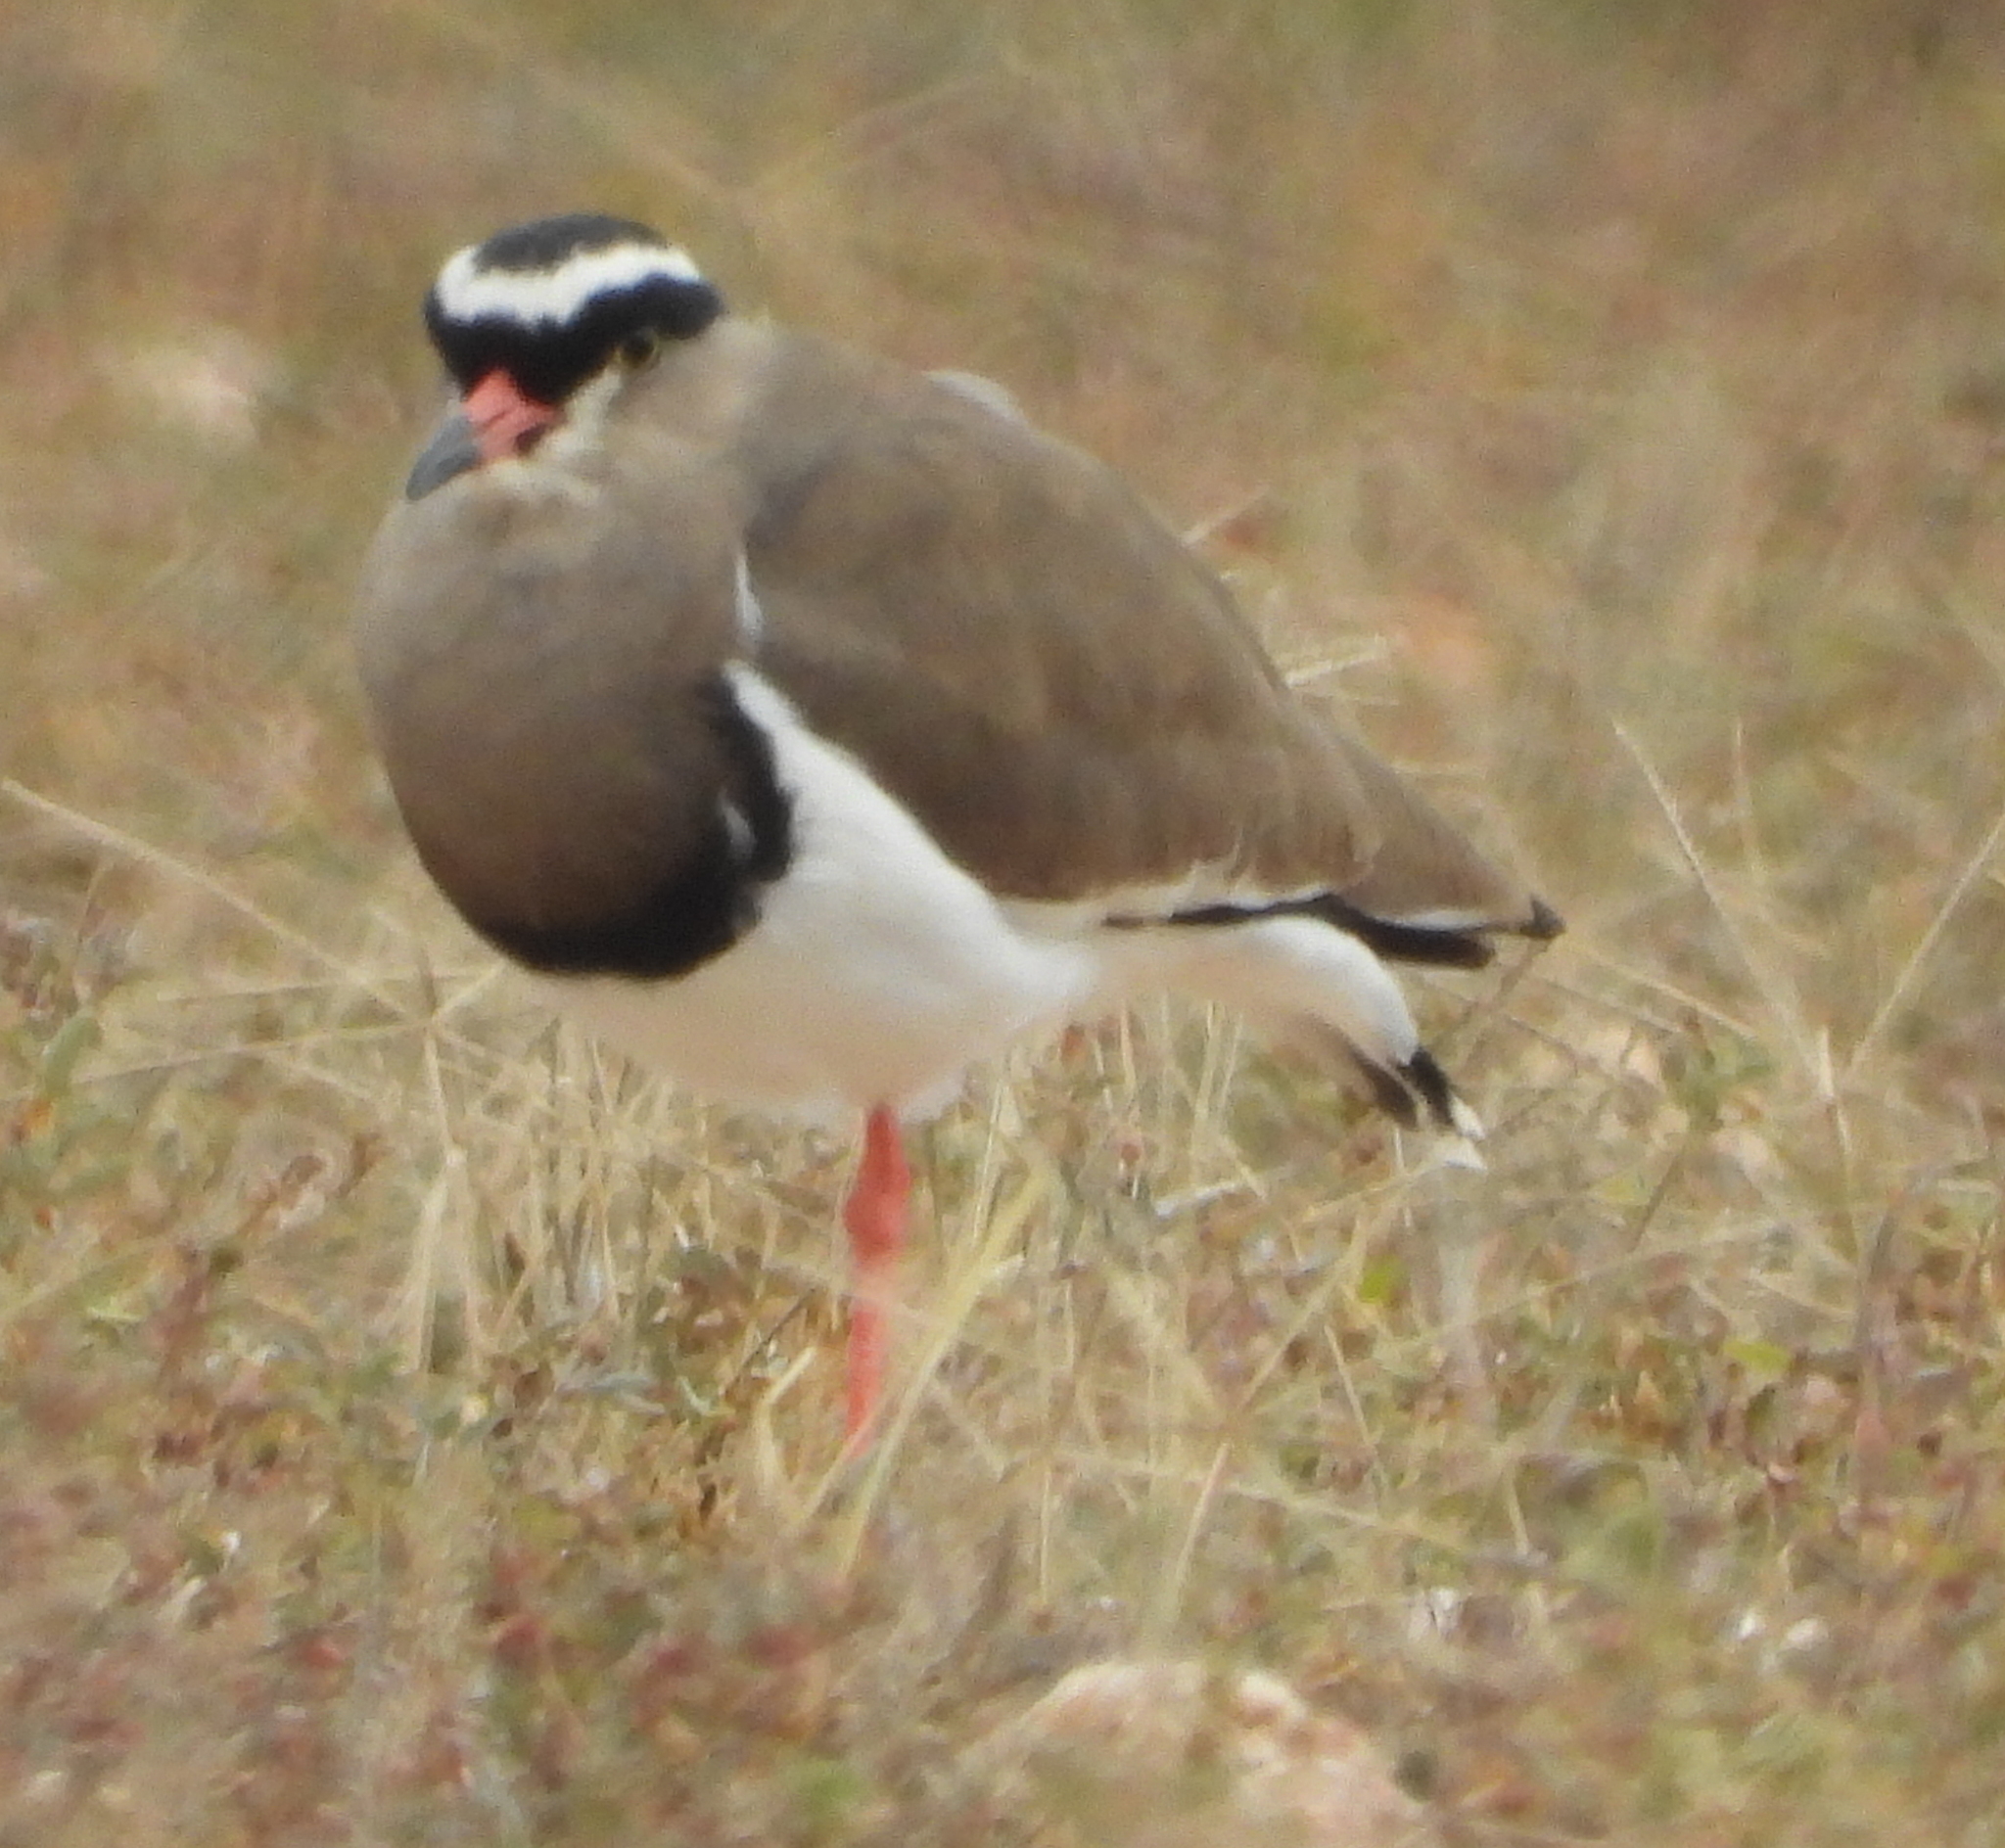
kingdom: Animalia
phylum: Chordata
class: Aves
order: Charadriiformes
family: Charadriidae
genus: Vanellus
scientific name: Vanellus coronatus
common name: Crowned lapwing
